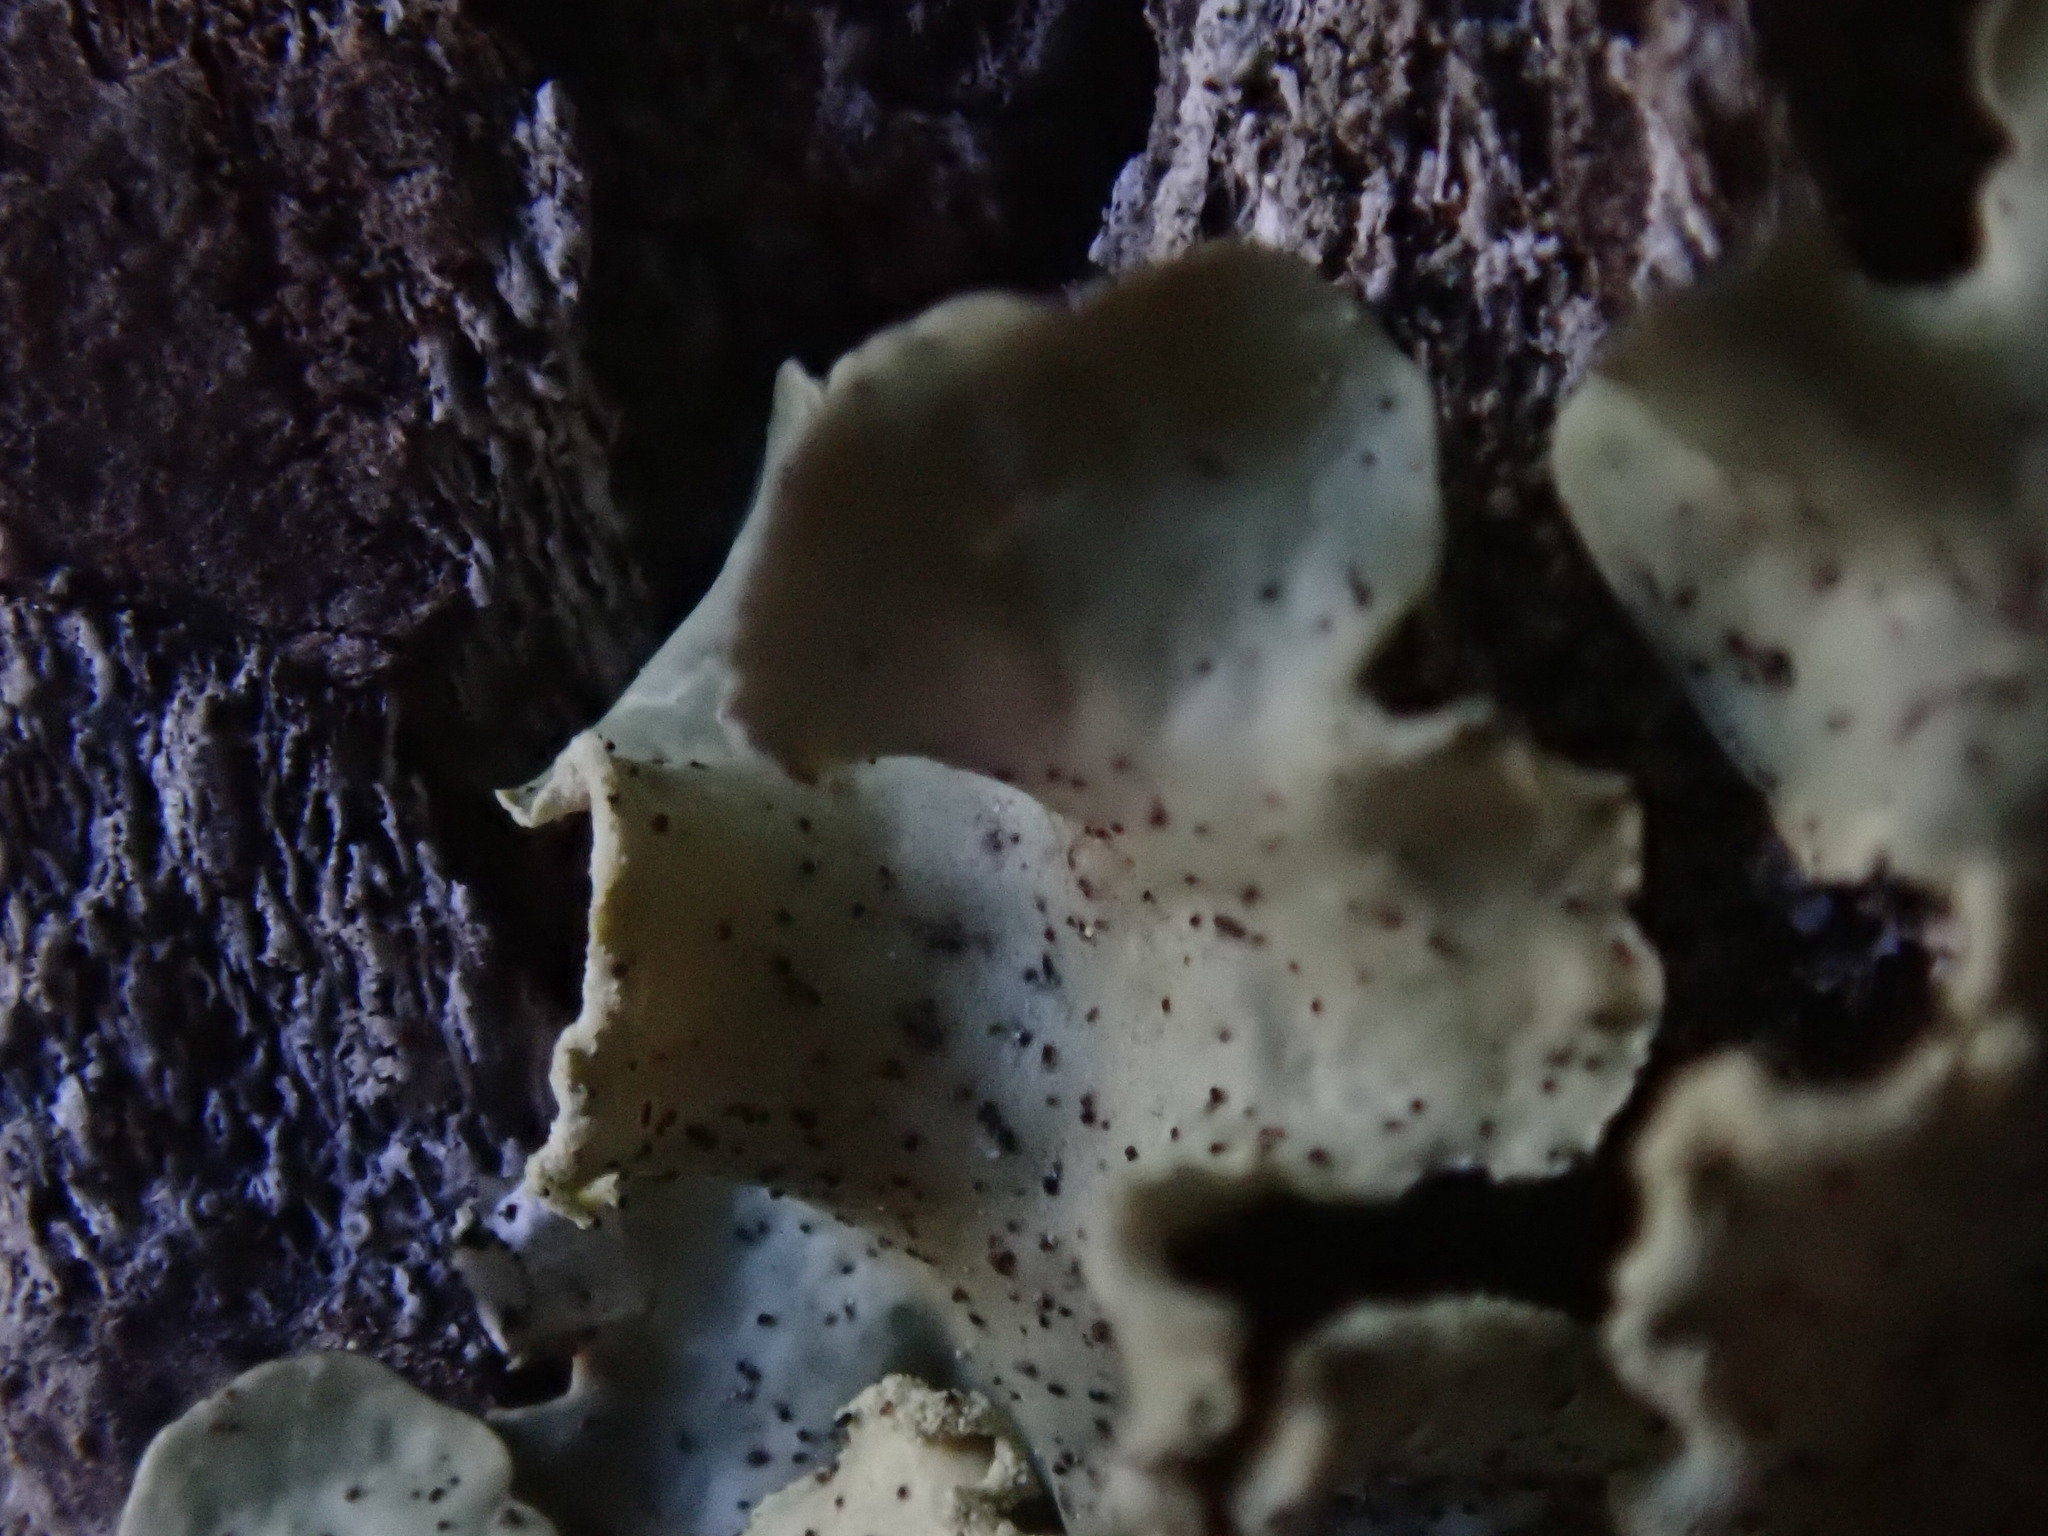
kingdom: Fungi
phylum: Ascomycota
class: Lecanoromycetes
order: Lecanorales
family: Parmeliaceae
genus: Usnocetraria
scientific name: Usnocetraria oakesiana
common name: Yellow ribbon lichen
